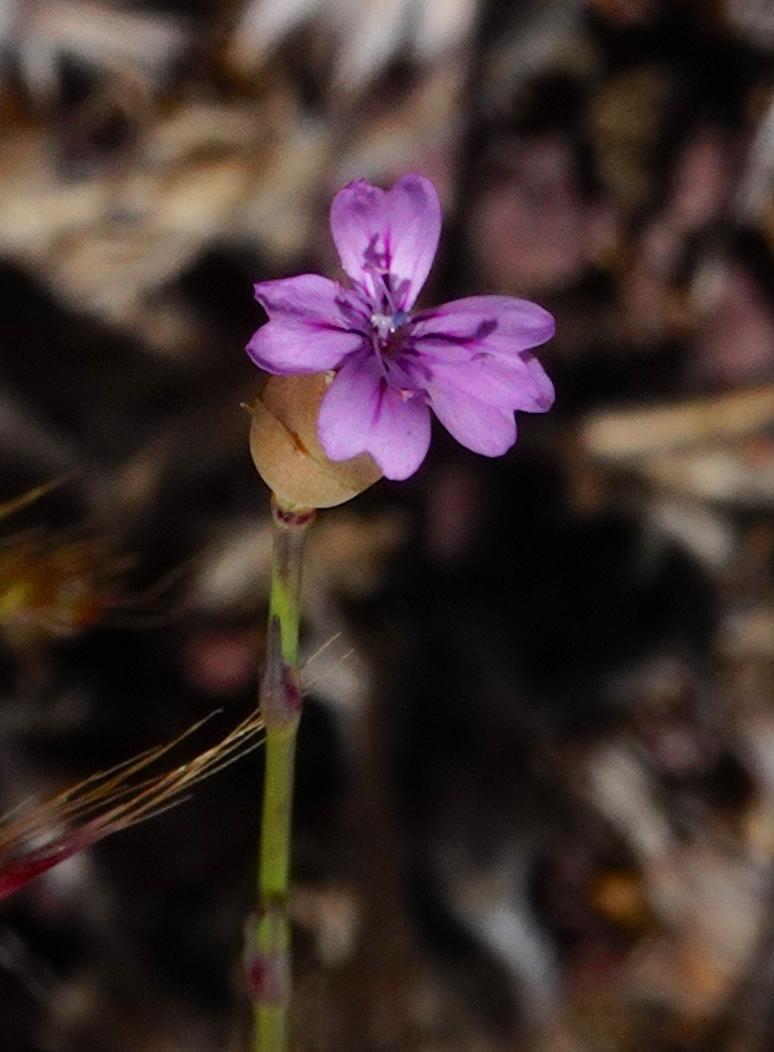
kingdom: Plantae
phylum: Tracheophyta
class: Magnoliopsida
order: Caryophyllales
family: Caryophyllaceae
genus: Petrorhagia
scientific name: Petrorhagia nanteuilii
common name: Proliferous pink
